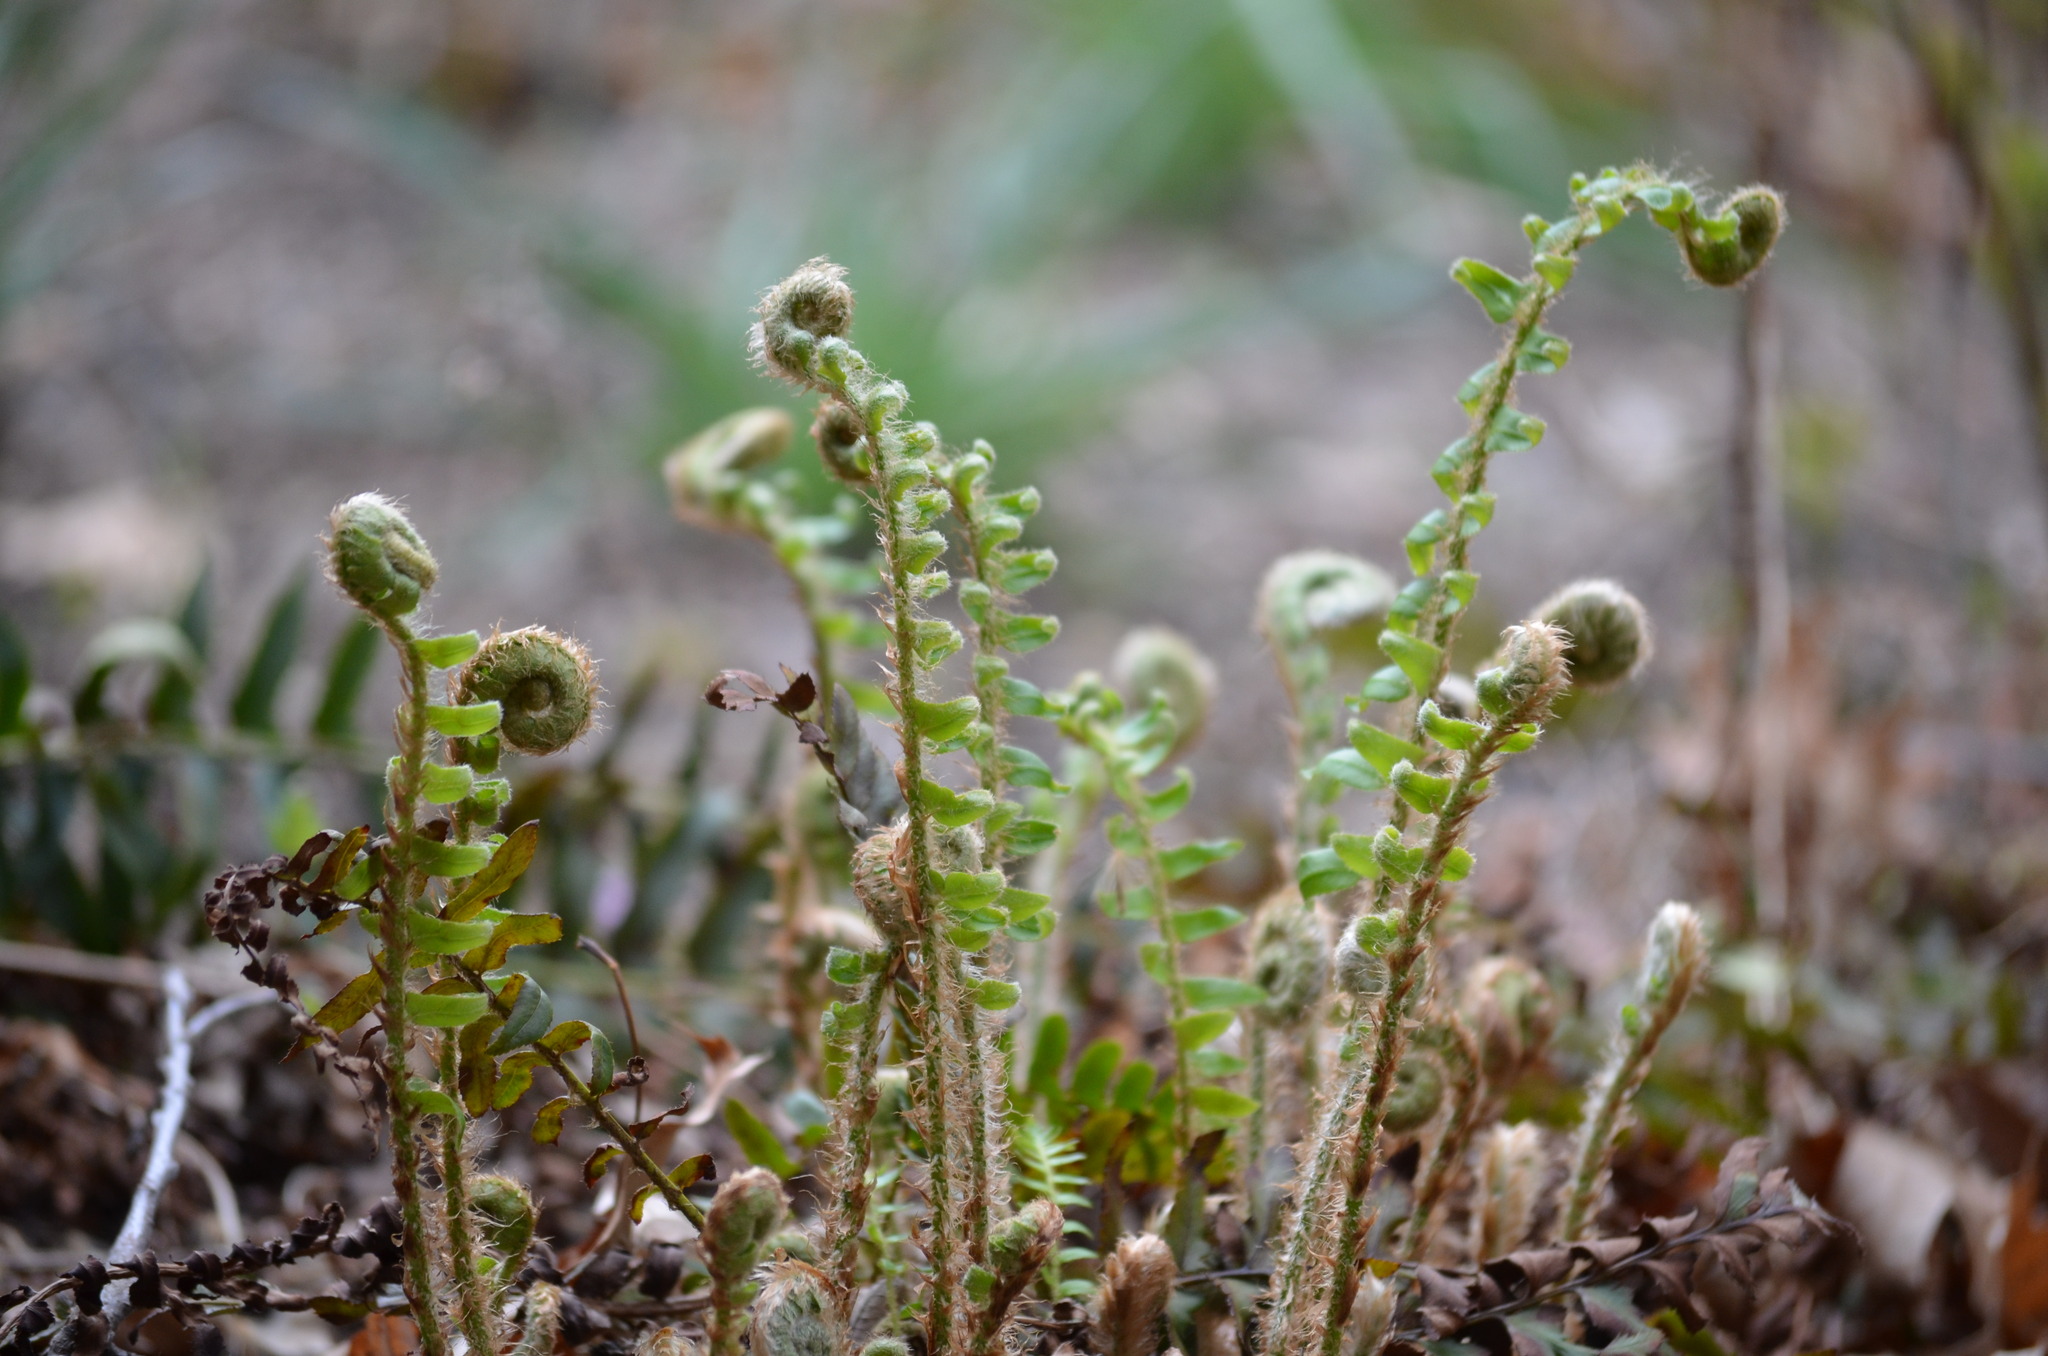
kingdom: Plantae
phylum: Tracheophyta
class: Polypodiopsida
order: Polypodiales
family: Dryopteridaceae
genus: Polystichum
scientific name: Polystichum acrostichoides
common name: Christmas fern
